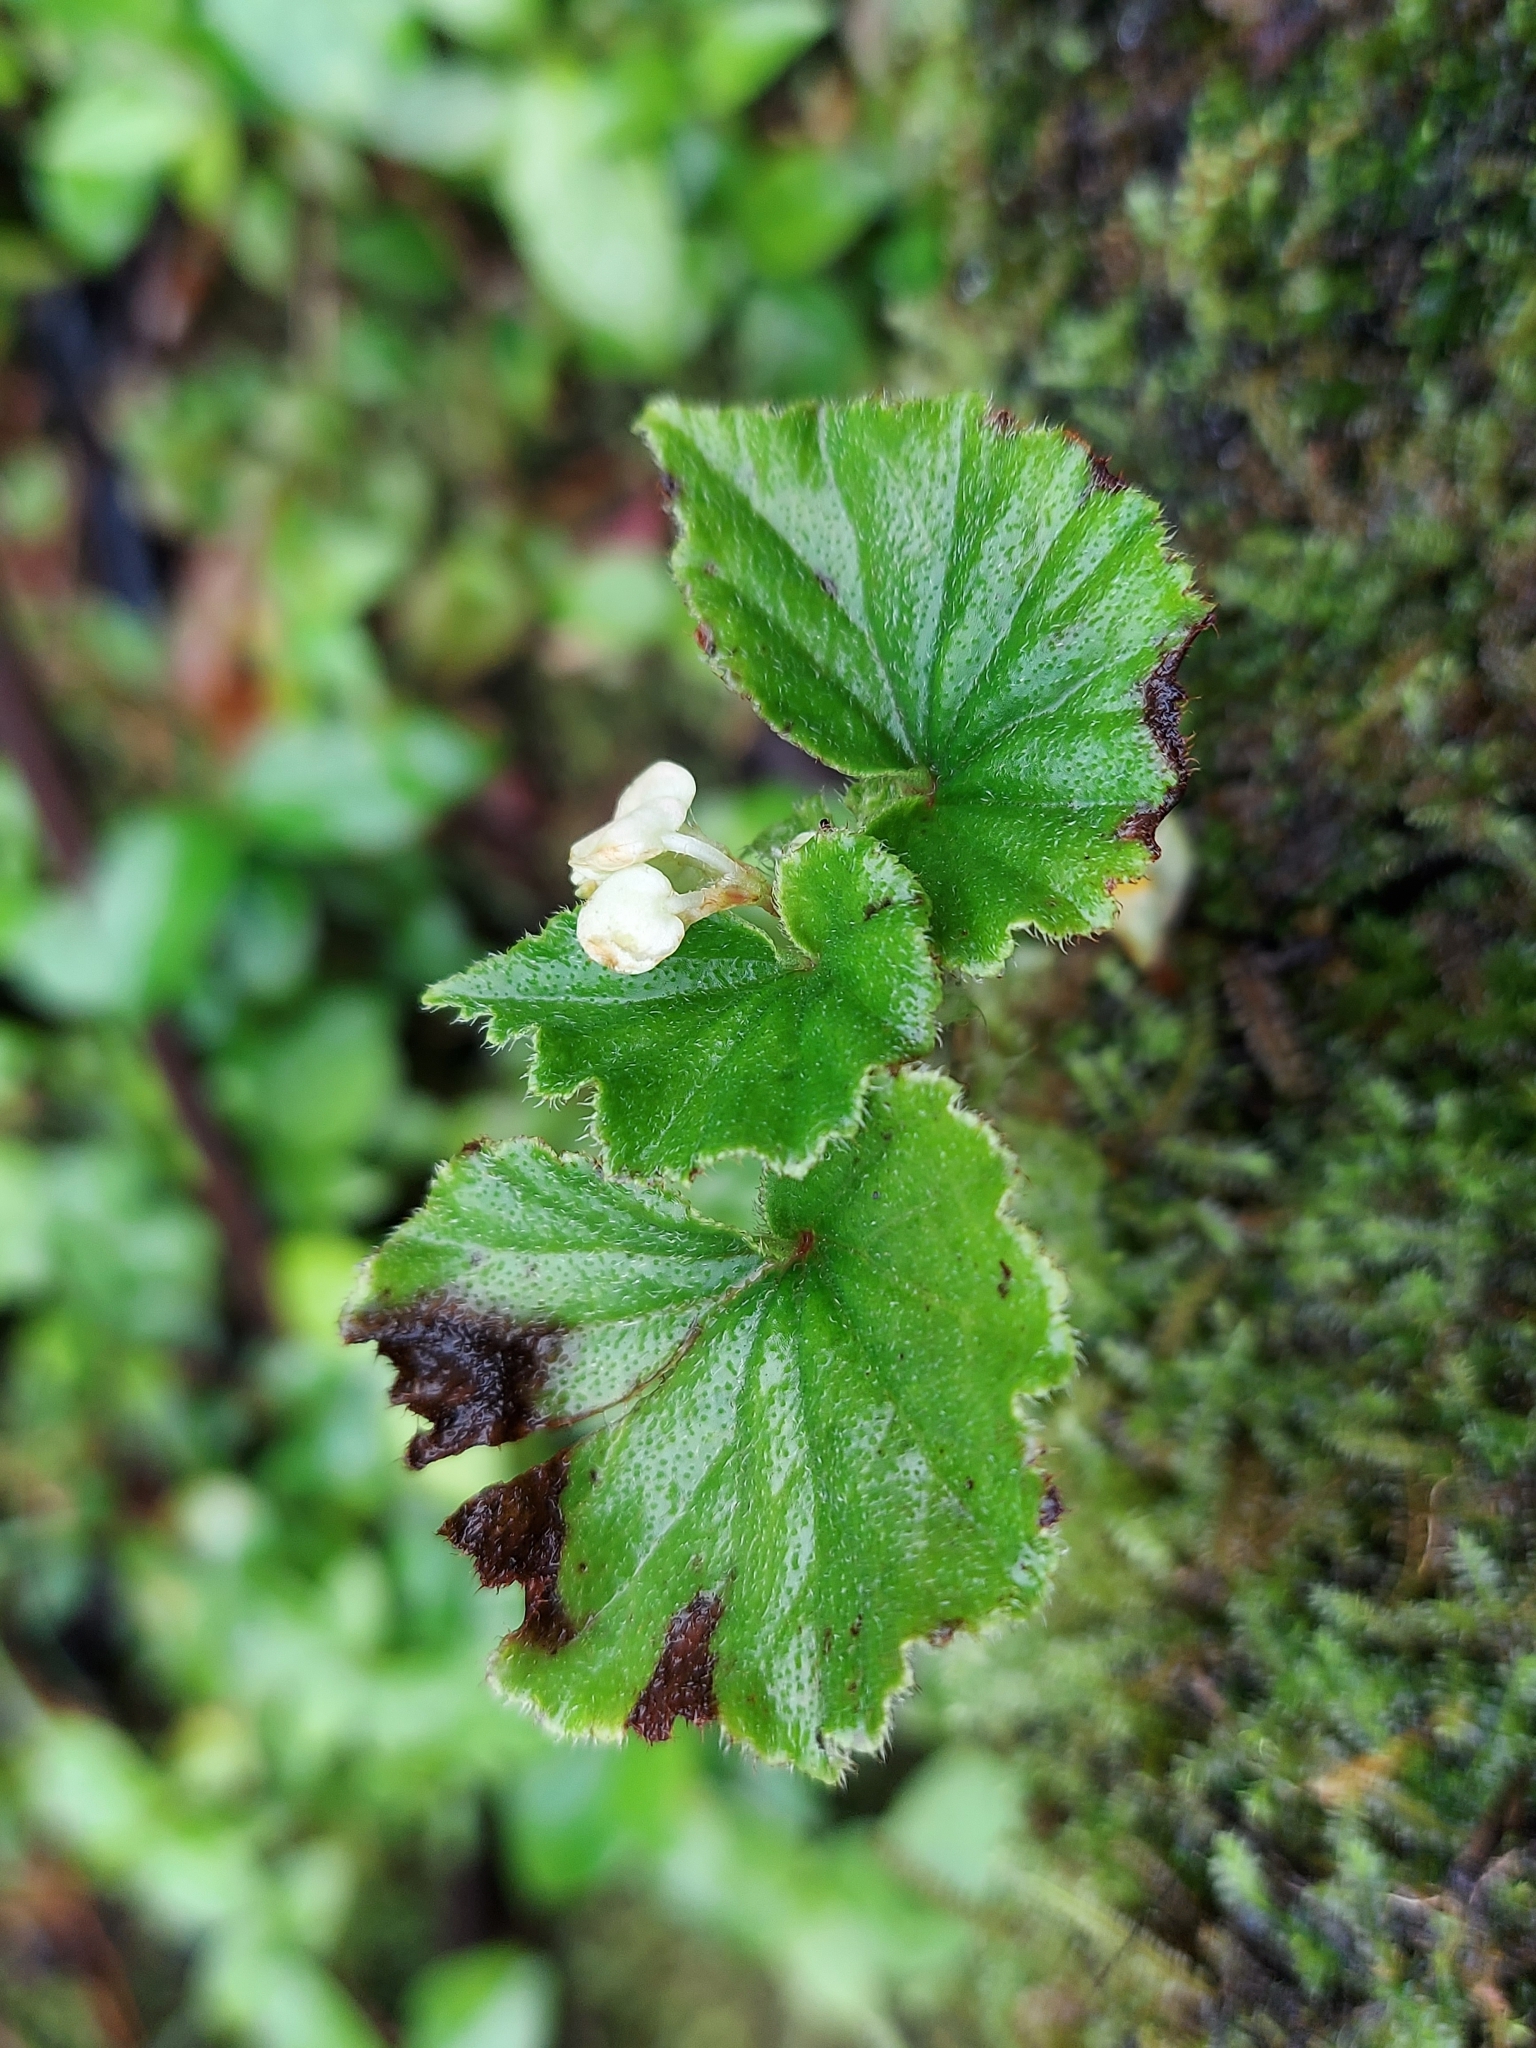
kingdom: Plantae
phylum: Tracheophyta
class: Magnoliopsida
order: Cucurbitales
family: Begoniaceae
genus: Begonia
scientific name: Begonia hirtella
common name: Brazilian begonia
